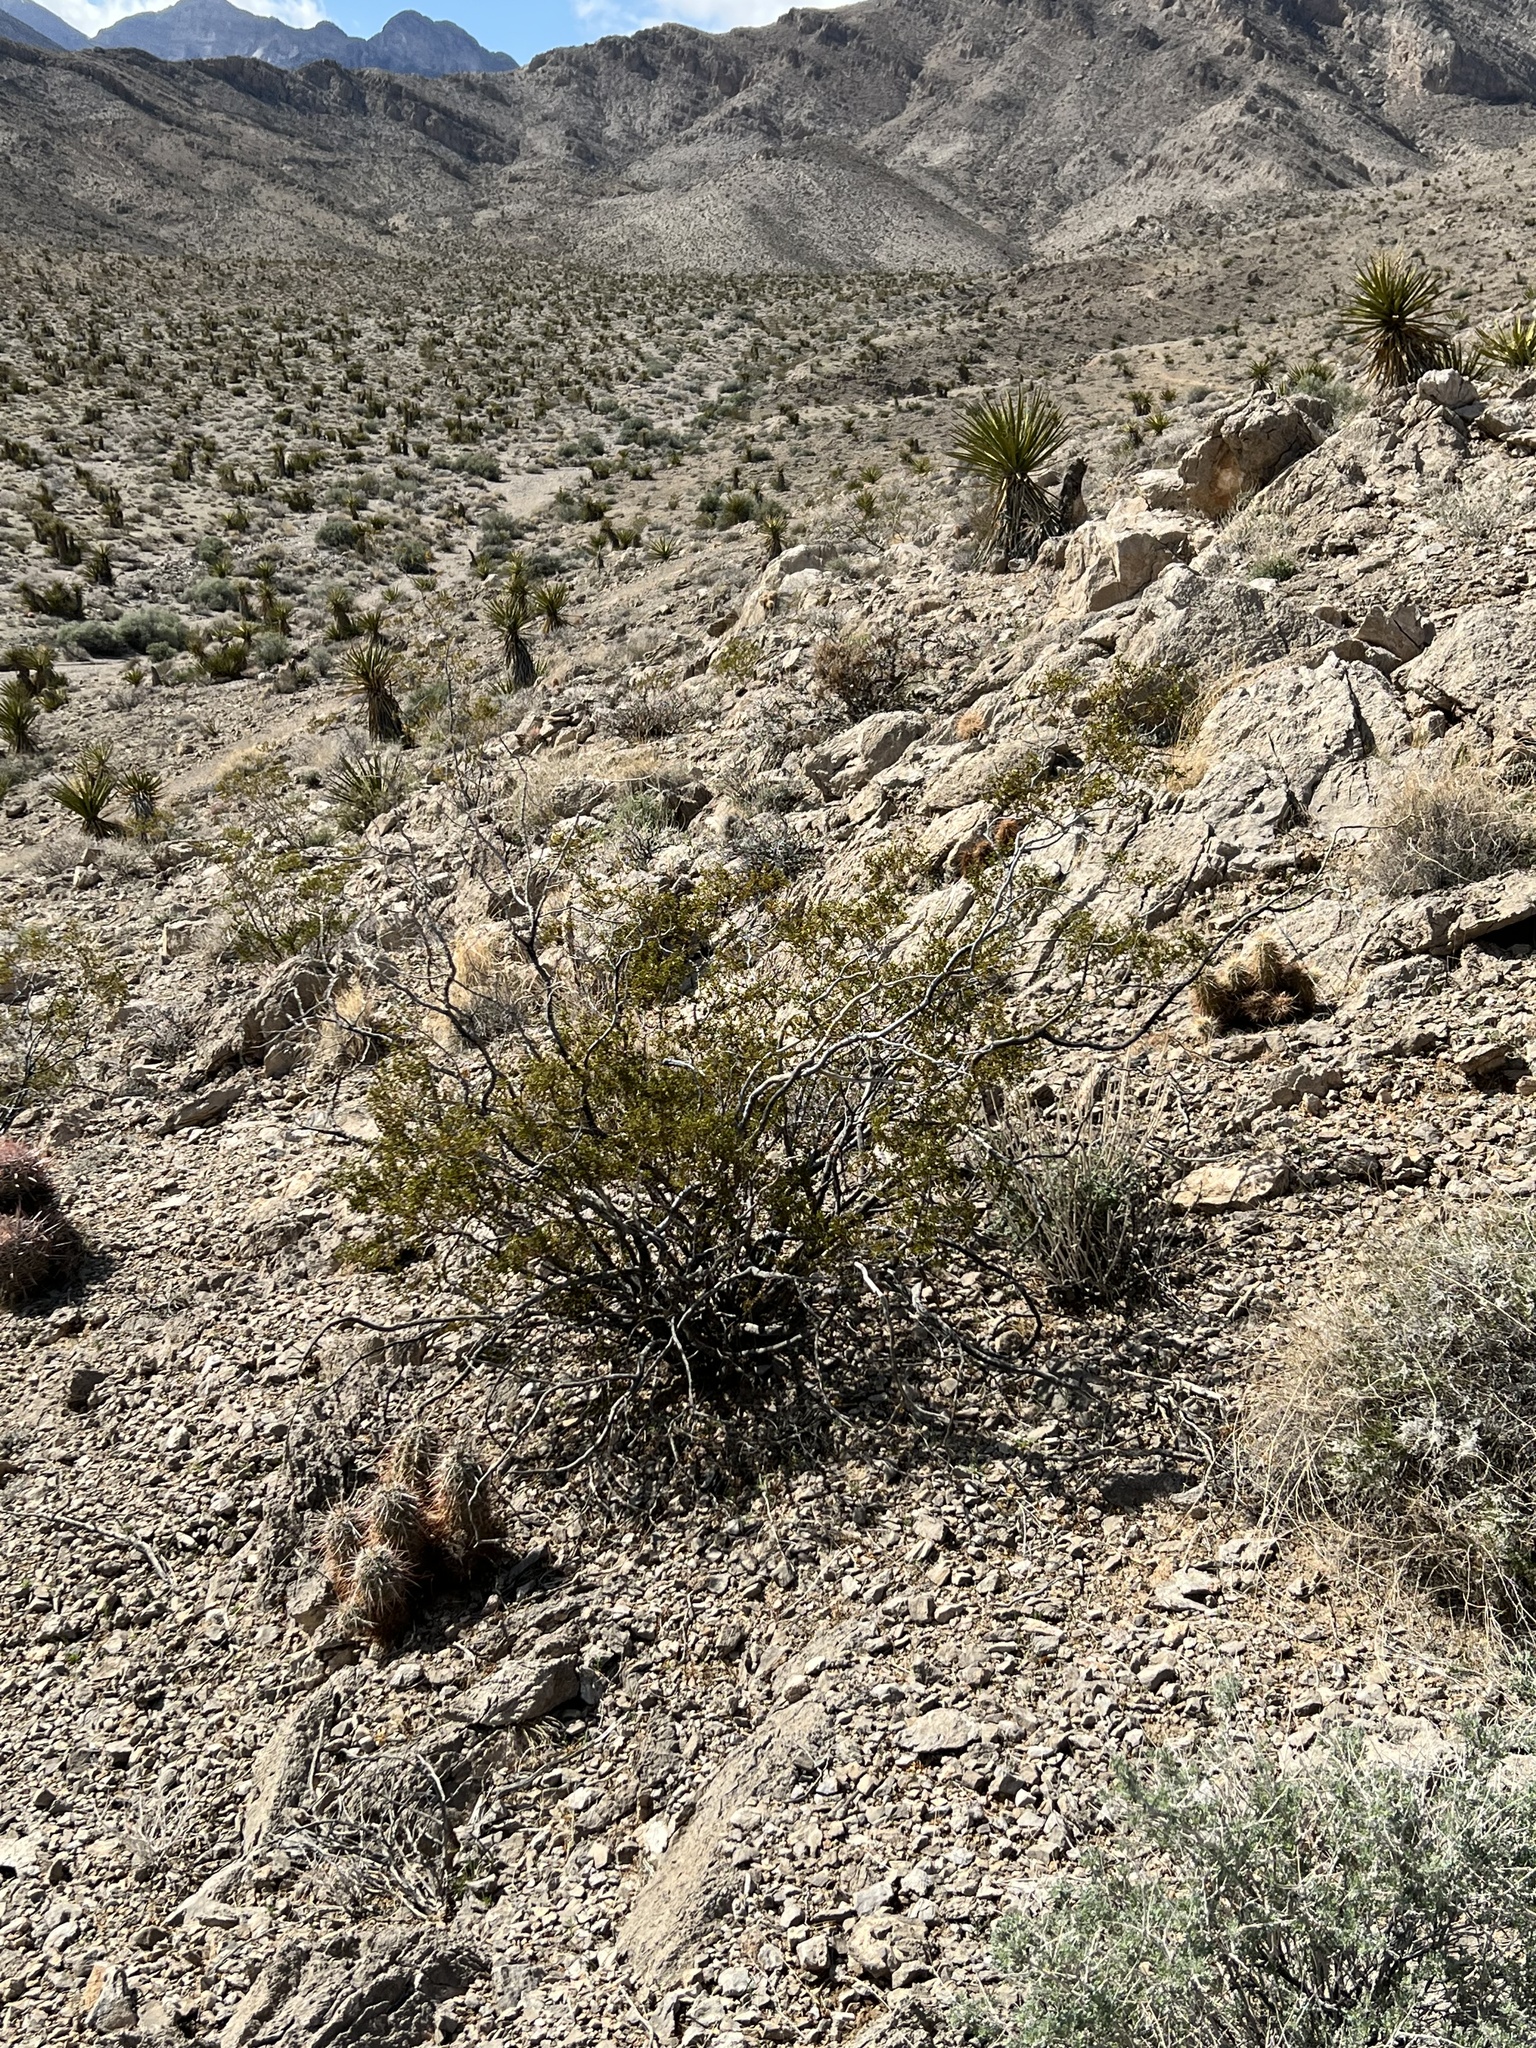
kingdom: Plantae
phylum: Tracheophyta
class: Magnoliopsida
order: Zygophyllales
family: Zygophyllaceae
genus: Larrea
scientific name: Larrea tridentata
